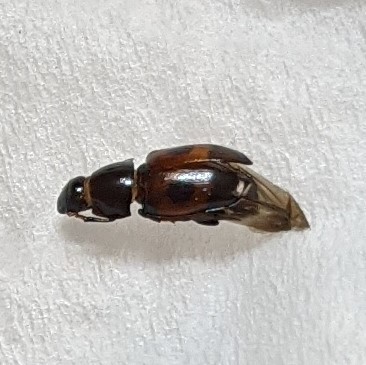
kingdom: Animalia
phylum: Arthropoda
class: Insecta
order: Coleoptera
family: Nitidulidae
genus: Glischrochilus
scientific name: Glischrochilus sanguinolentus
